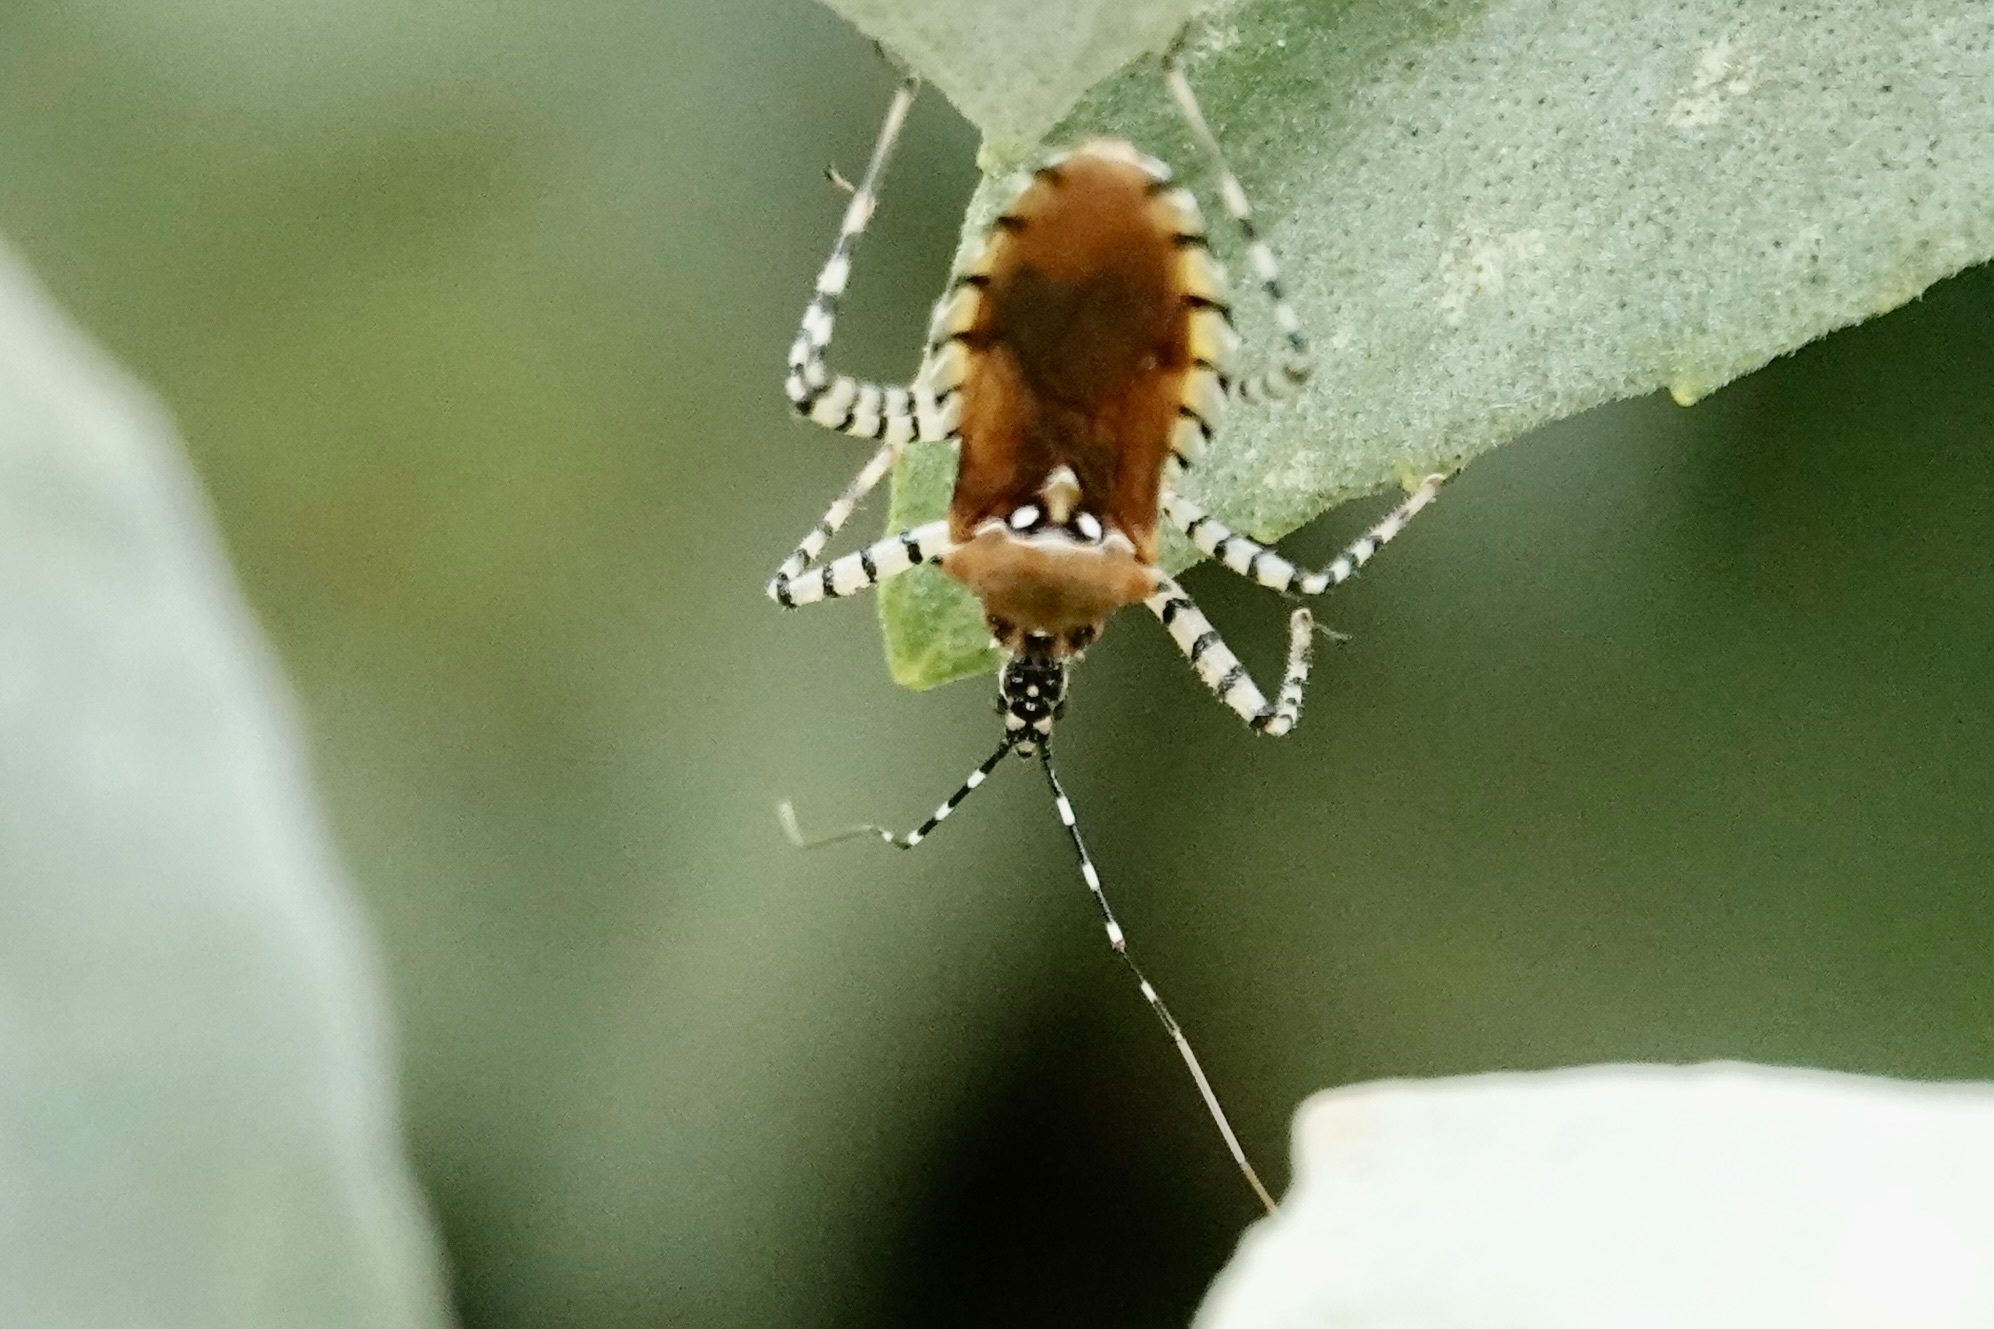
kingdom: Animalia
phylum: Arthropoda
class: Insecta
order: Hemiptera
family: Reduviidae
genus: Pselliopus
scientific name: Pselliopus cinctus
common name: Ringed assassin bug
